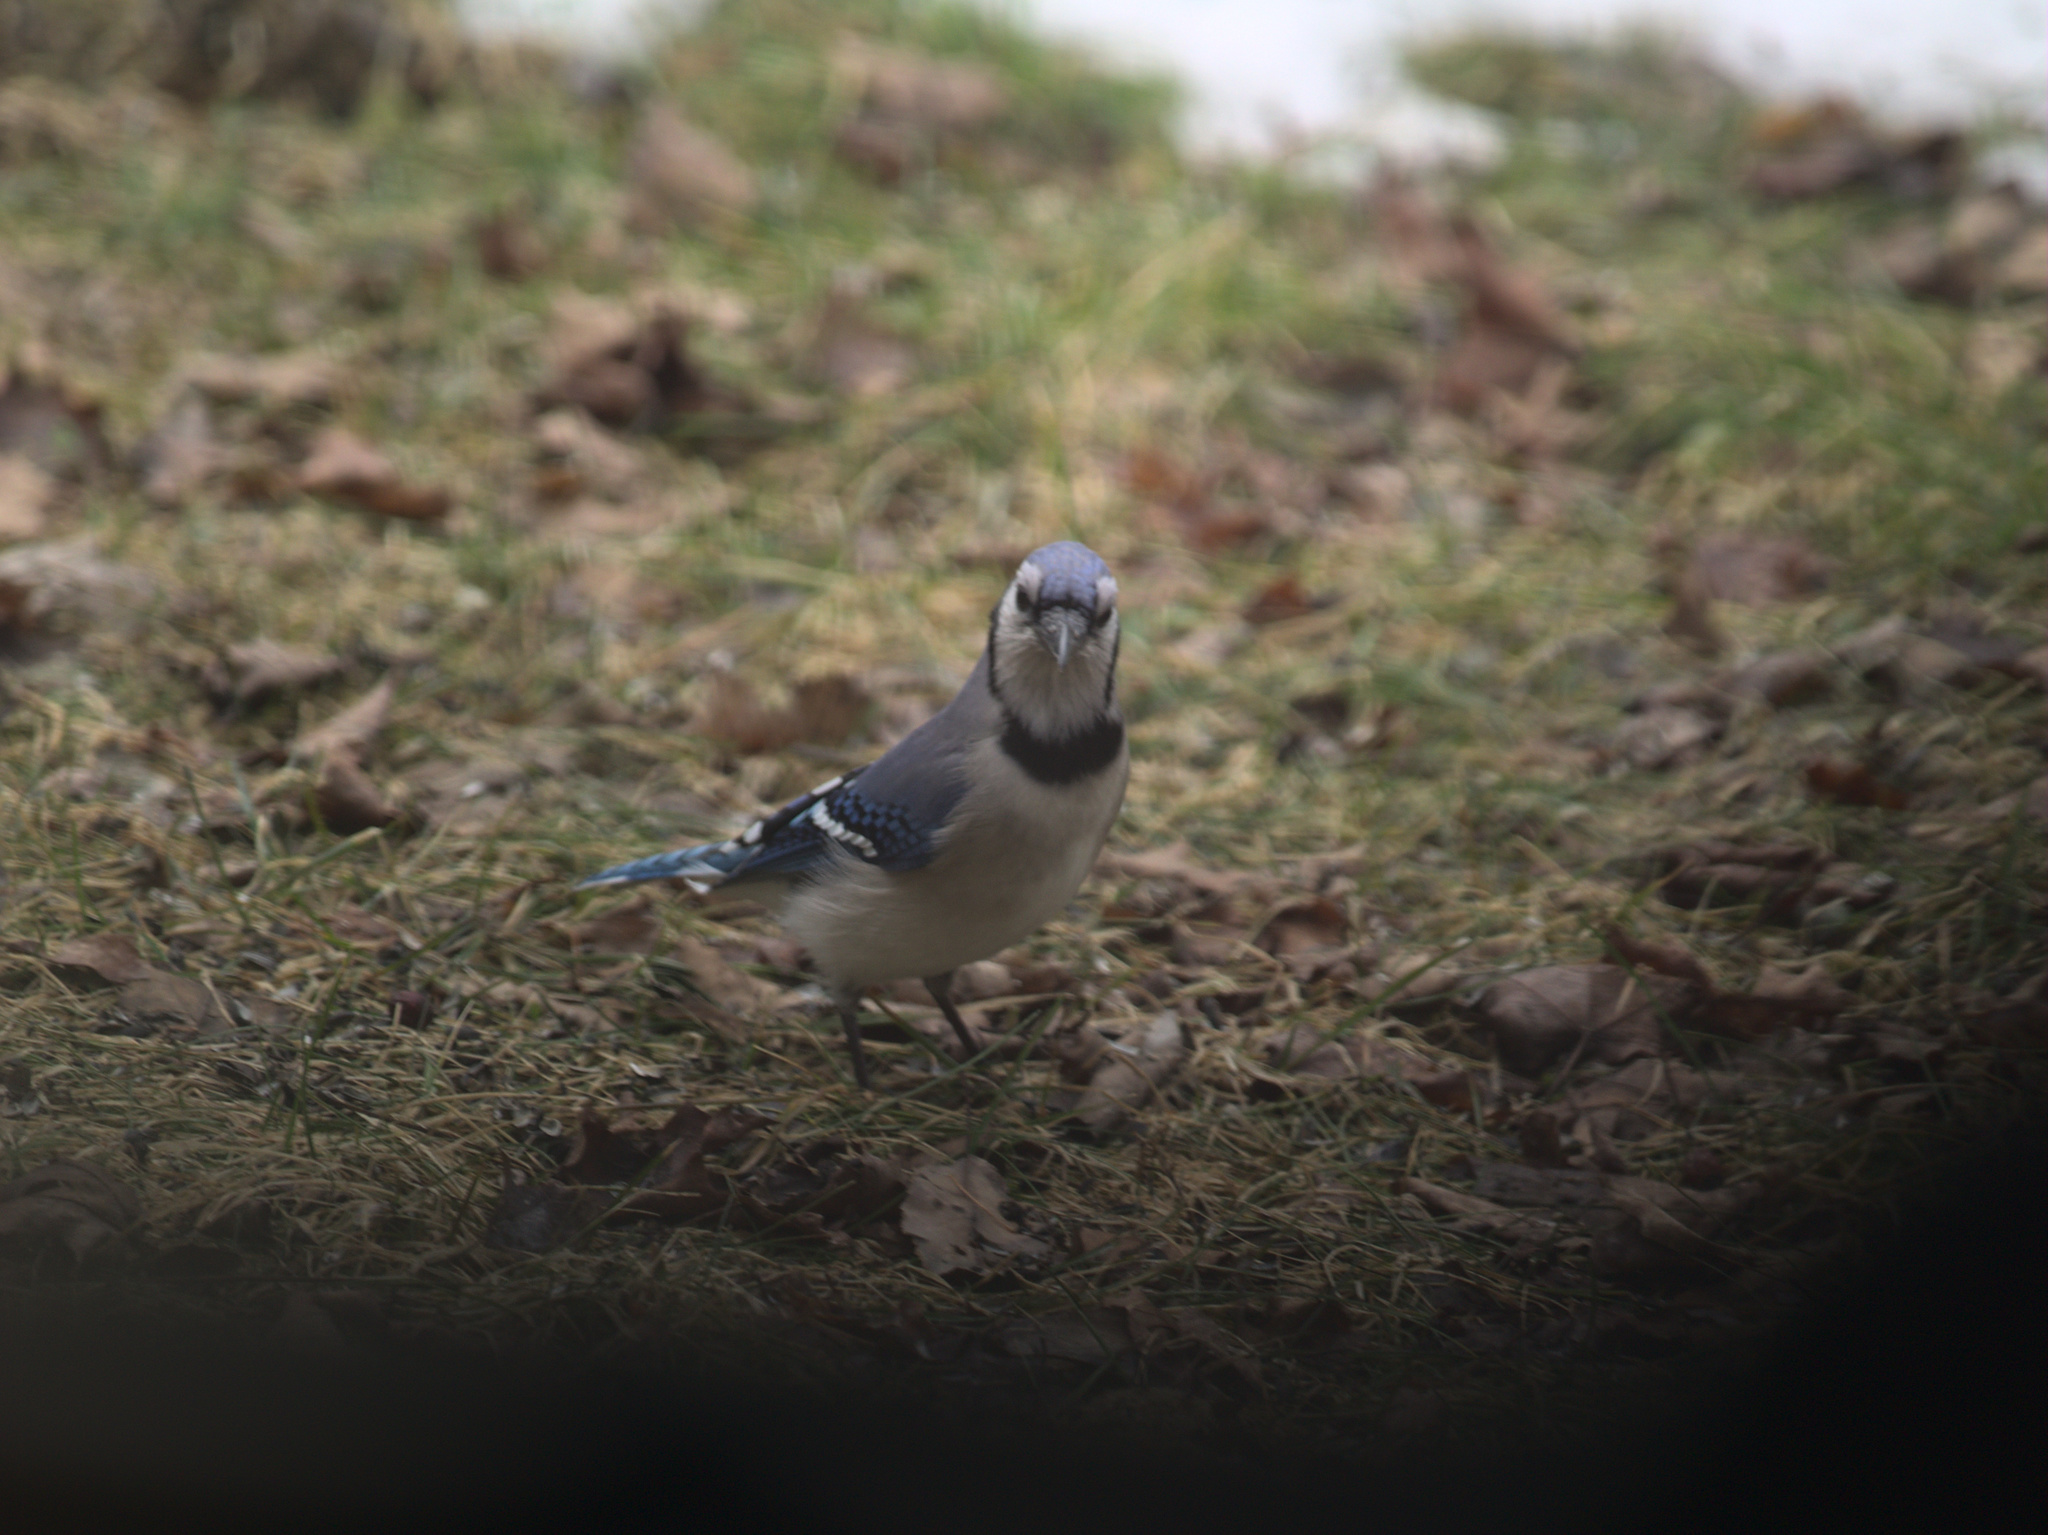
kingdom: Animalia
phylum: Chordata
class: Aves
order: Passeriformes
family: Corvidae
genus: Cyanocitta
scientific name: Cyanocitta cristata
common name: Blue jay
